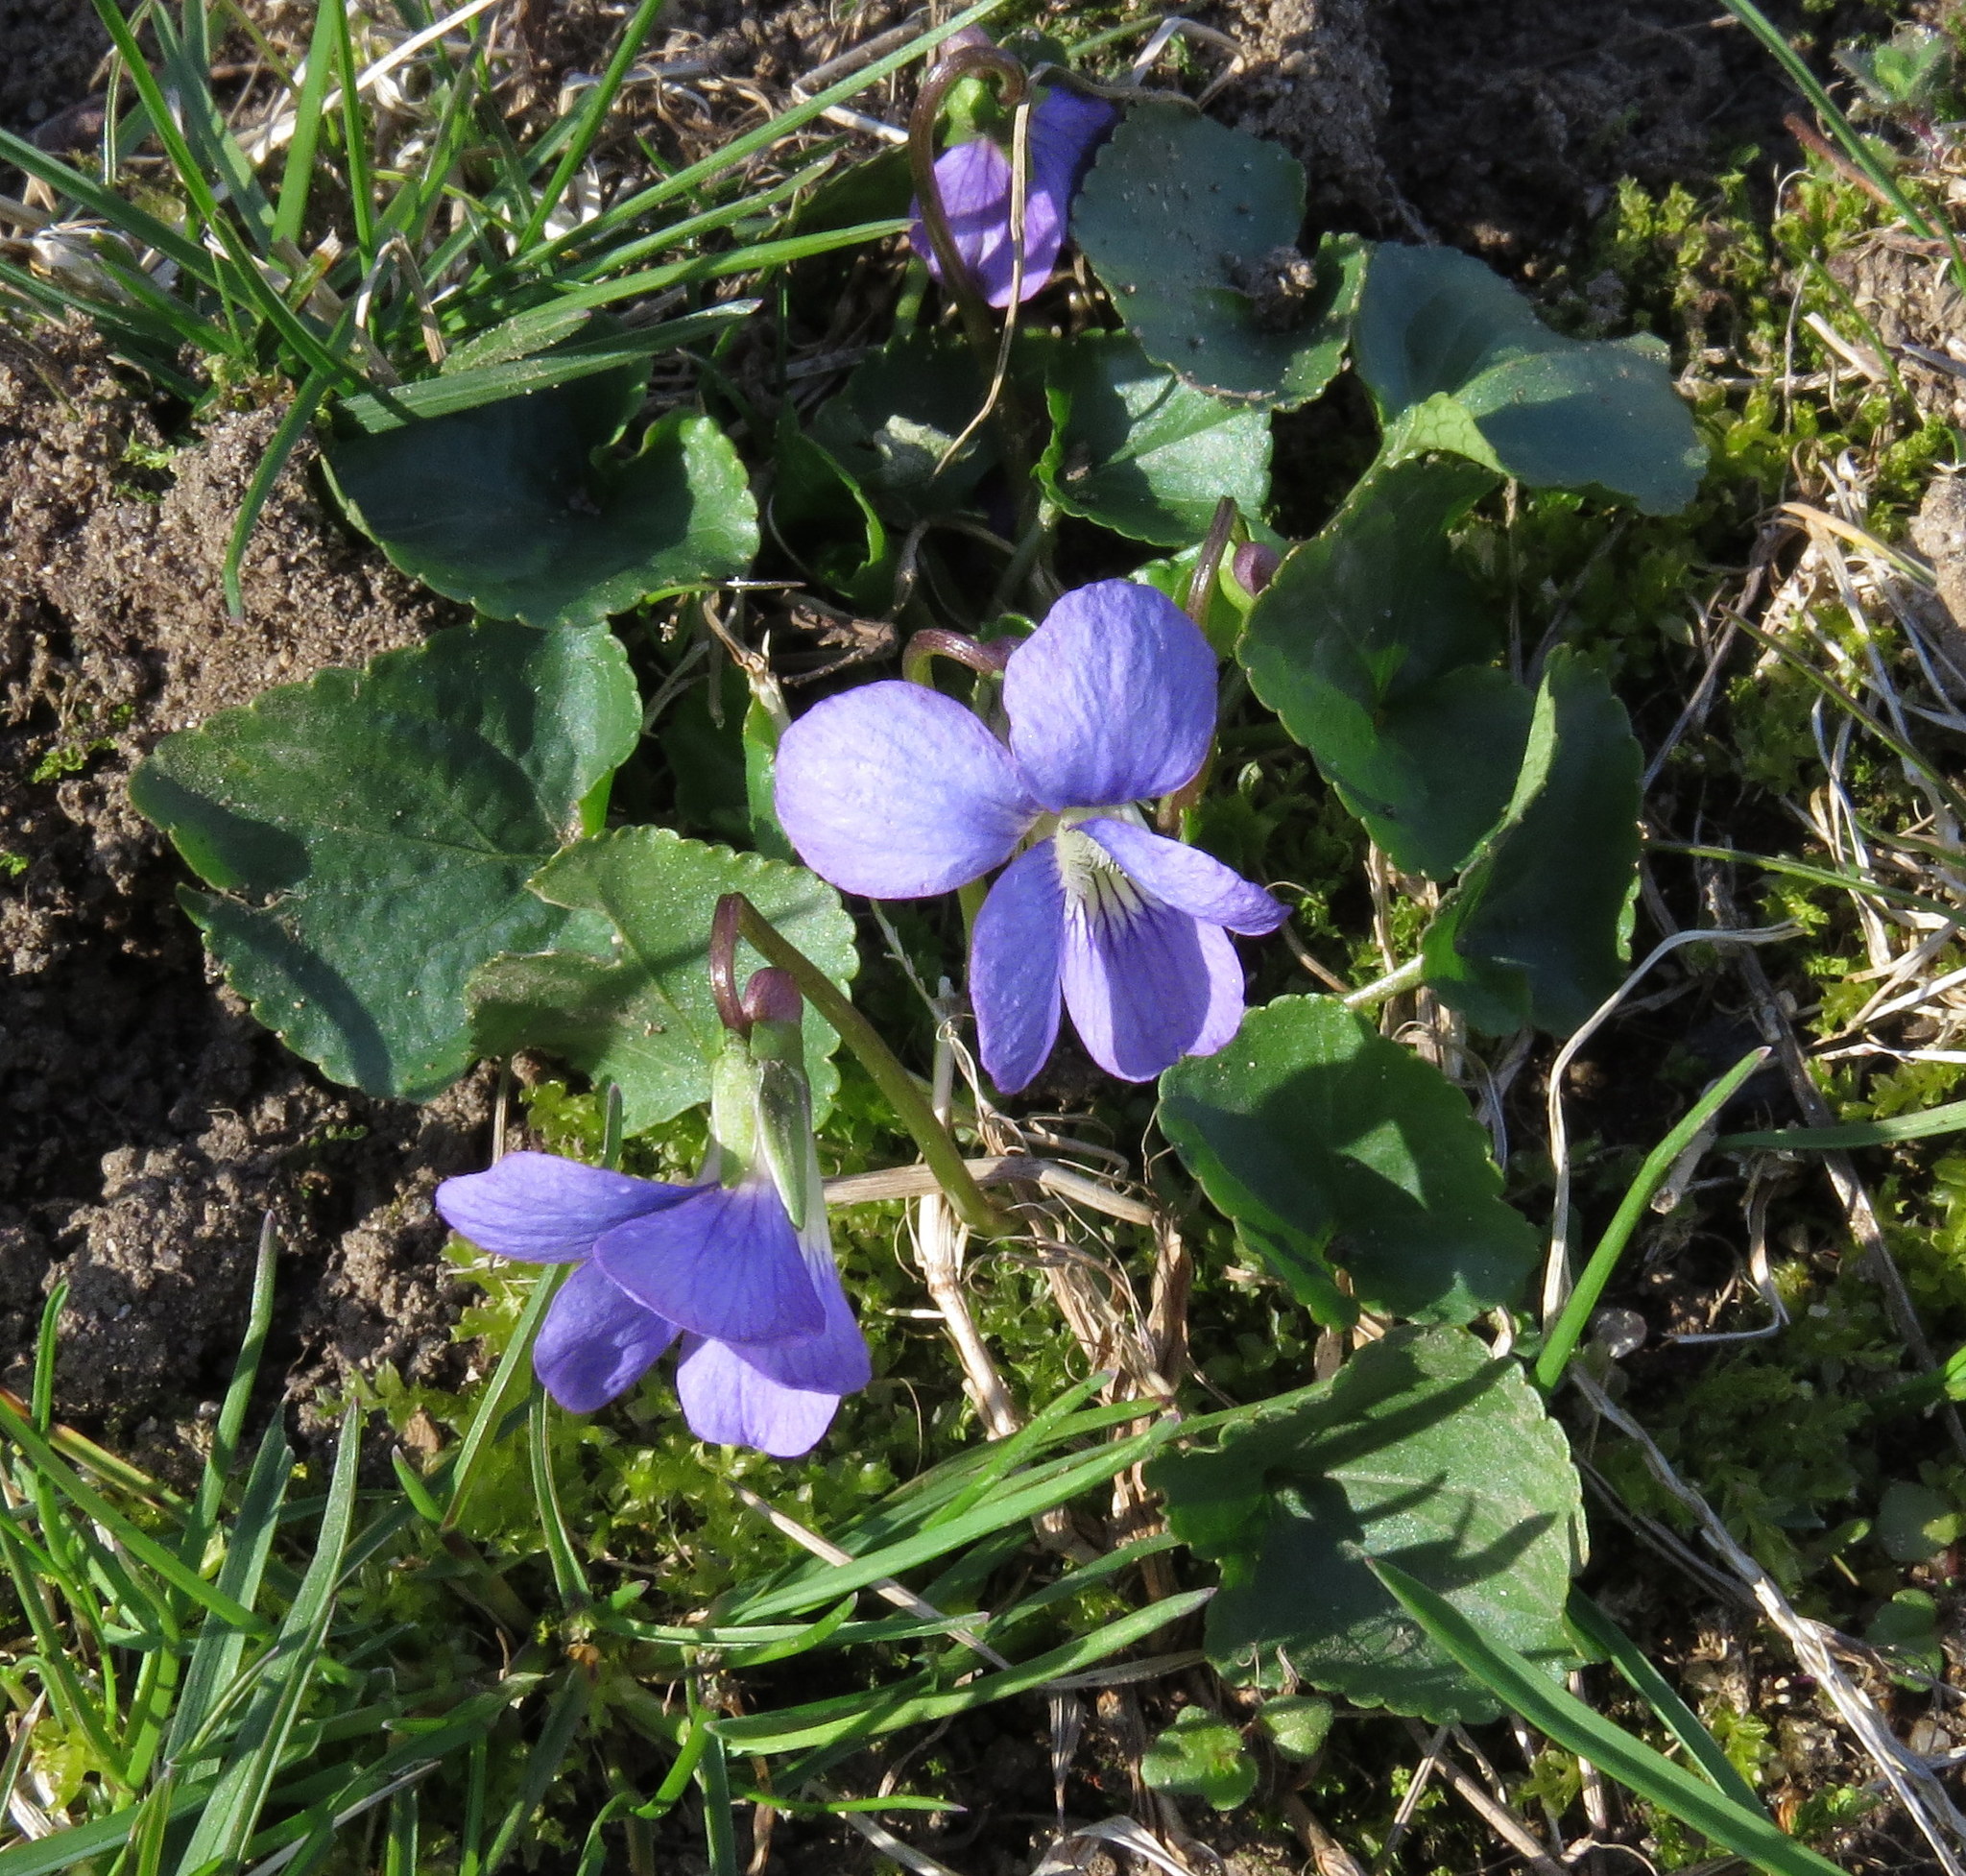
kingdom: Plantae
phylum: Tracheophyta
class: Magnoliopsida
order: Malpighiales
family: Violaceae
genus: Viola
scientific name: Viola sororia
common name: Dooryard violet
